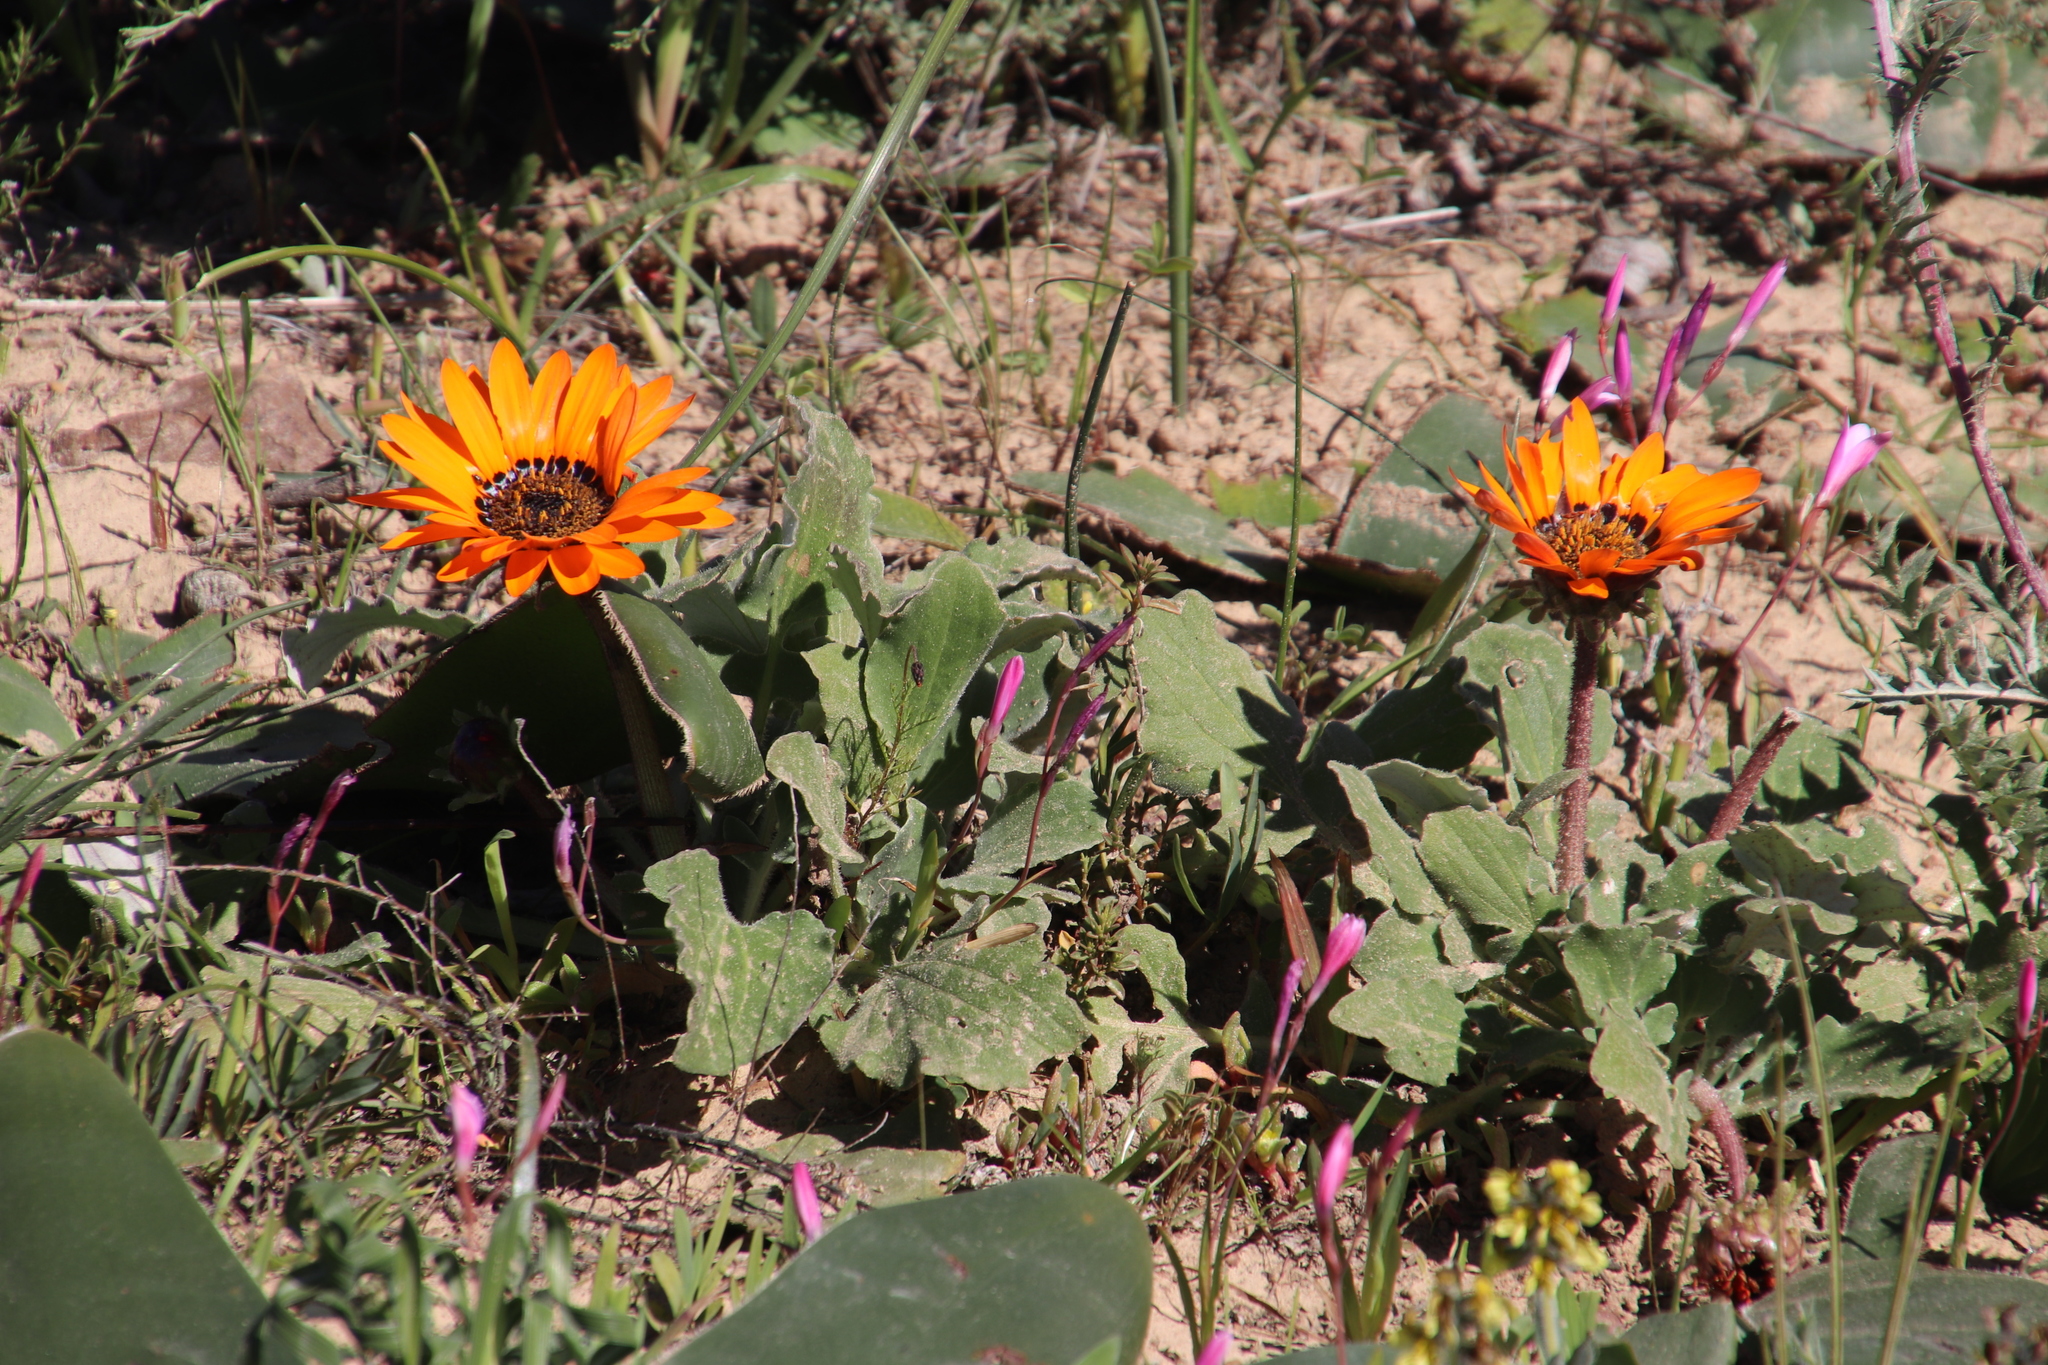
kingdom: Plantae
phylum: Tracheophyta
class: Magnoliopsida
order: Asterales
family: Asteraceae
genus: Arctotis
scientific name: Arctotis acaulis
